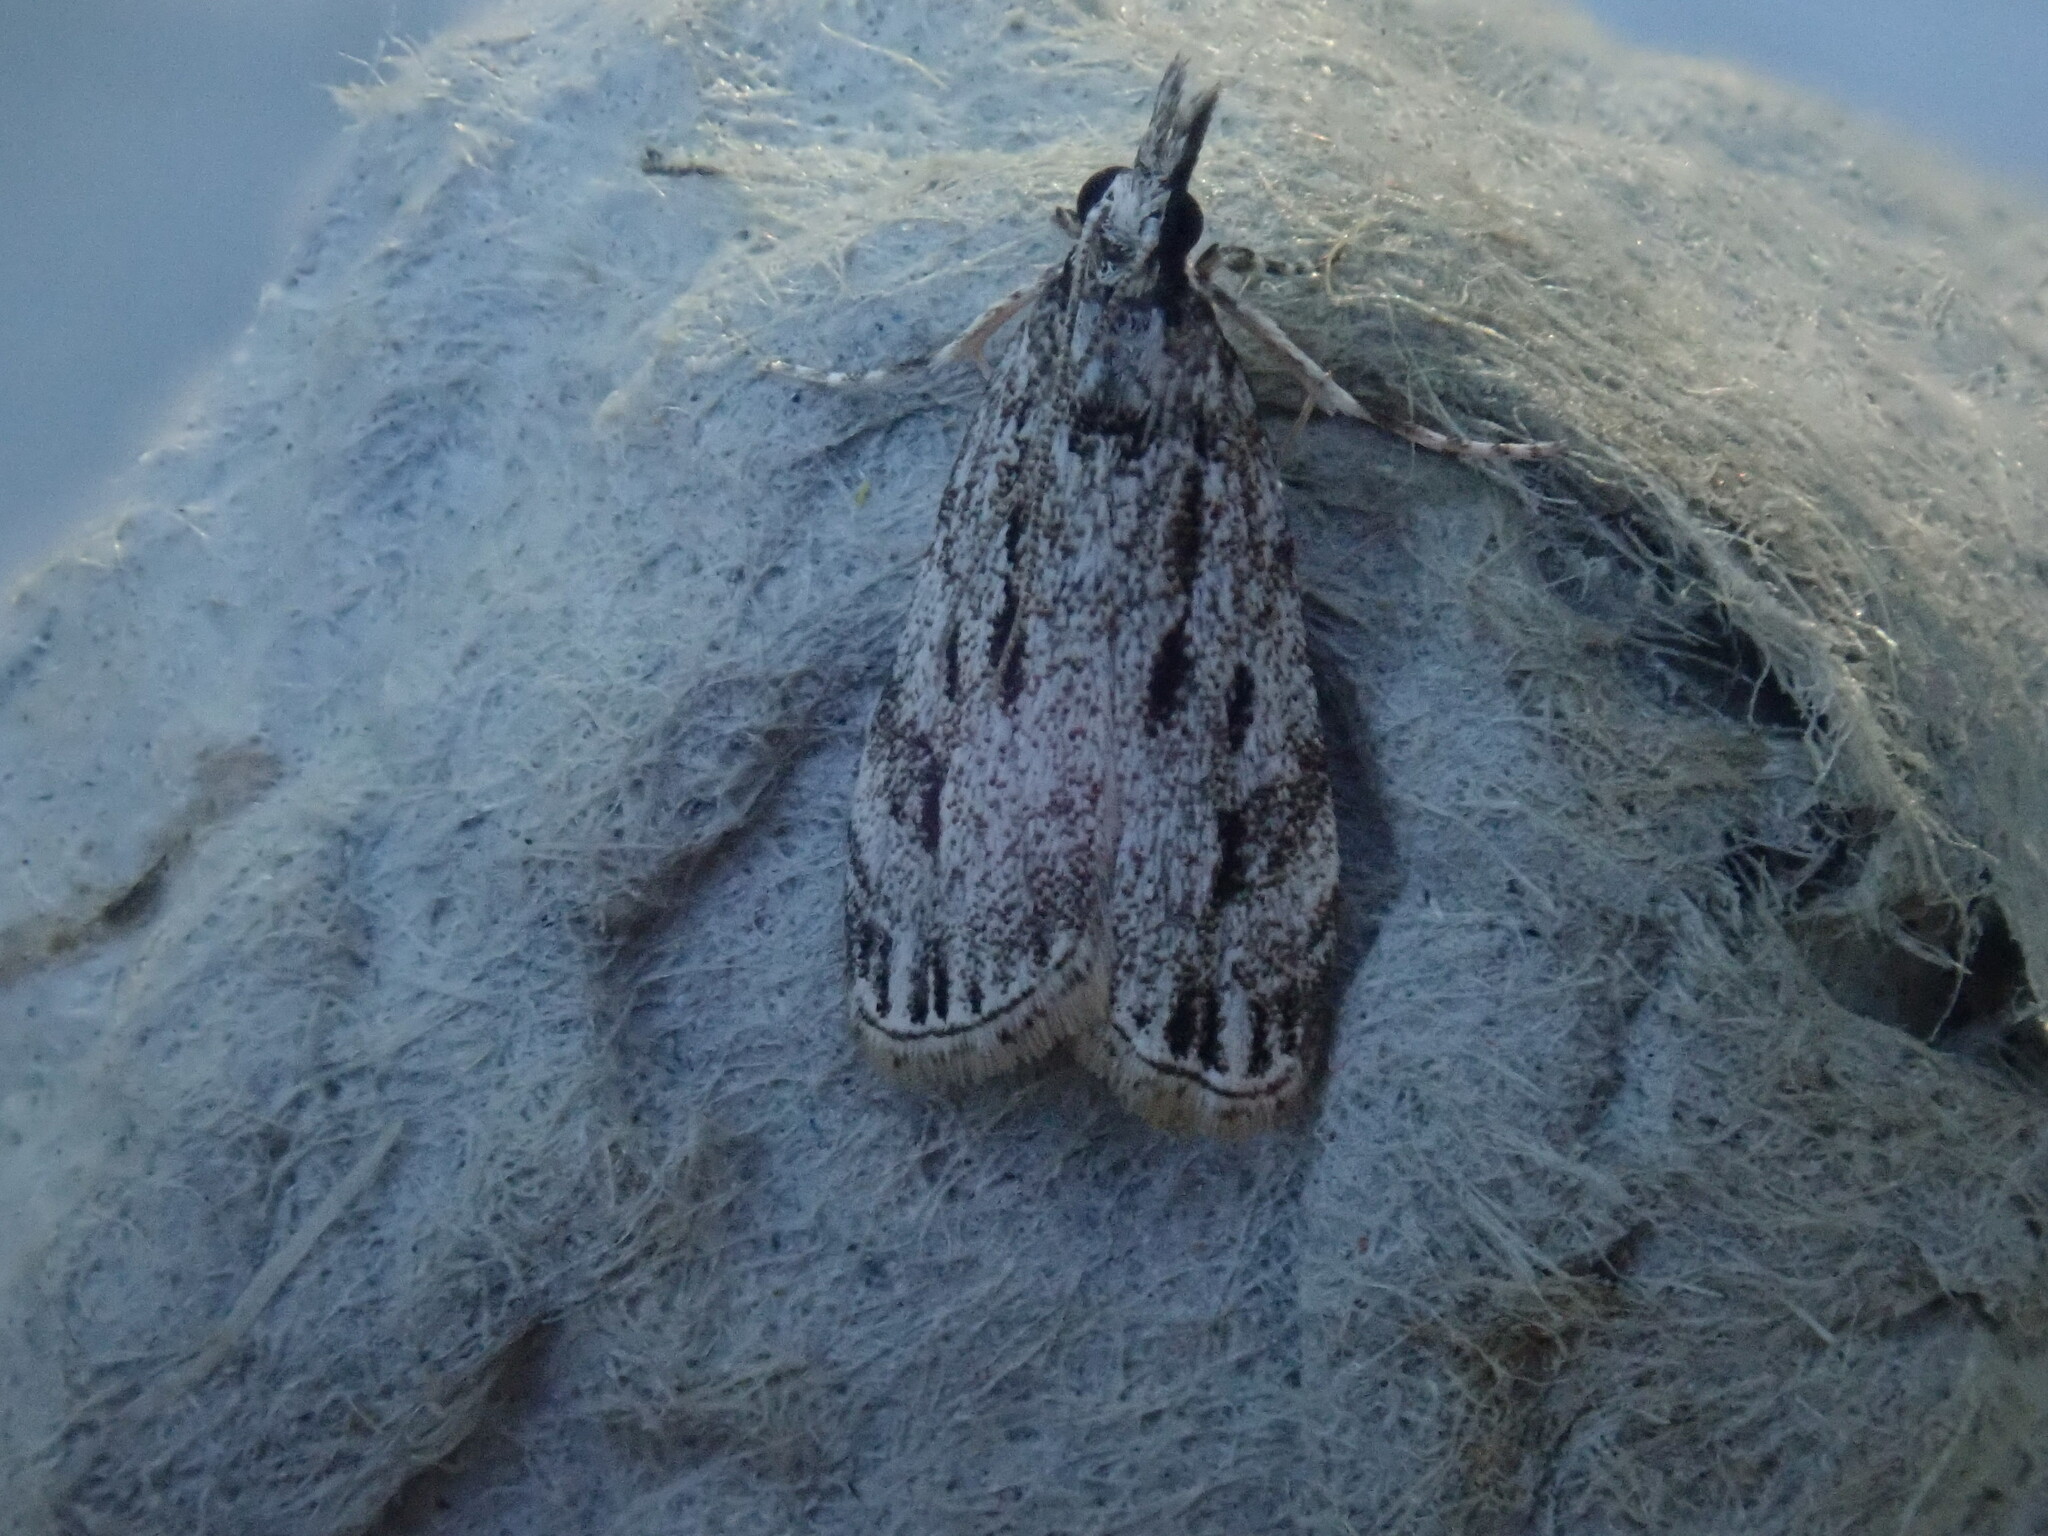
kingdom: Animalia
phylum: Arthropoda
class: Insecta
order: Lepidoptera
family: Crambidae
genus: Eudonia
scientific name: Eudonia strigalis
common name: Striped eudonia moth
